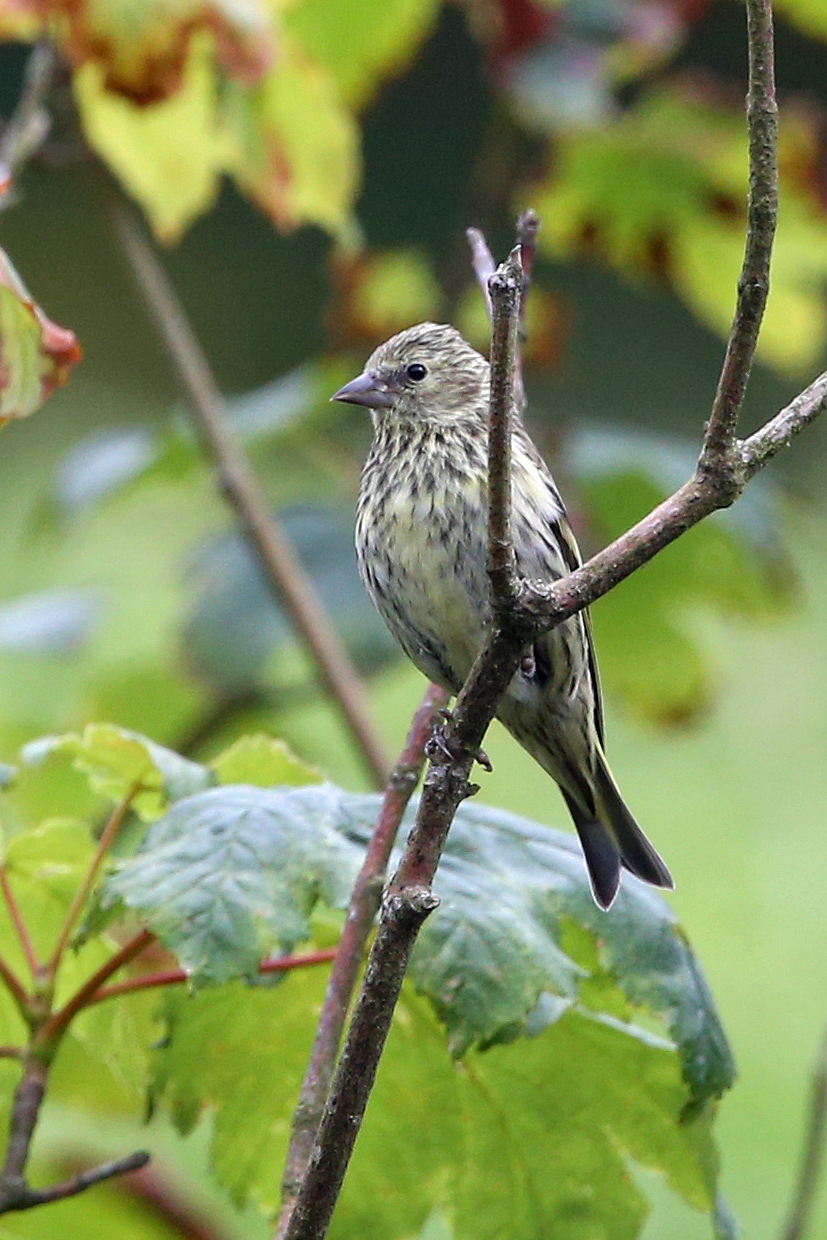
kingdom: Animalia
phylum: Chordata
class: Aves
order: Passeriformes
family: Fringillidae
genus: Spinus
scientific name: Spinus spinus
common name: Eurasian siskin
